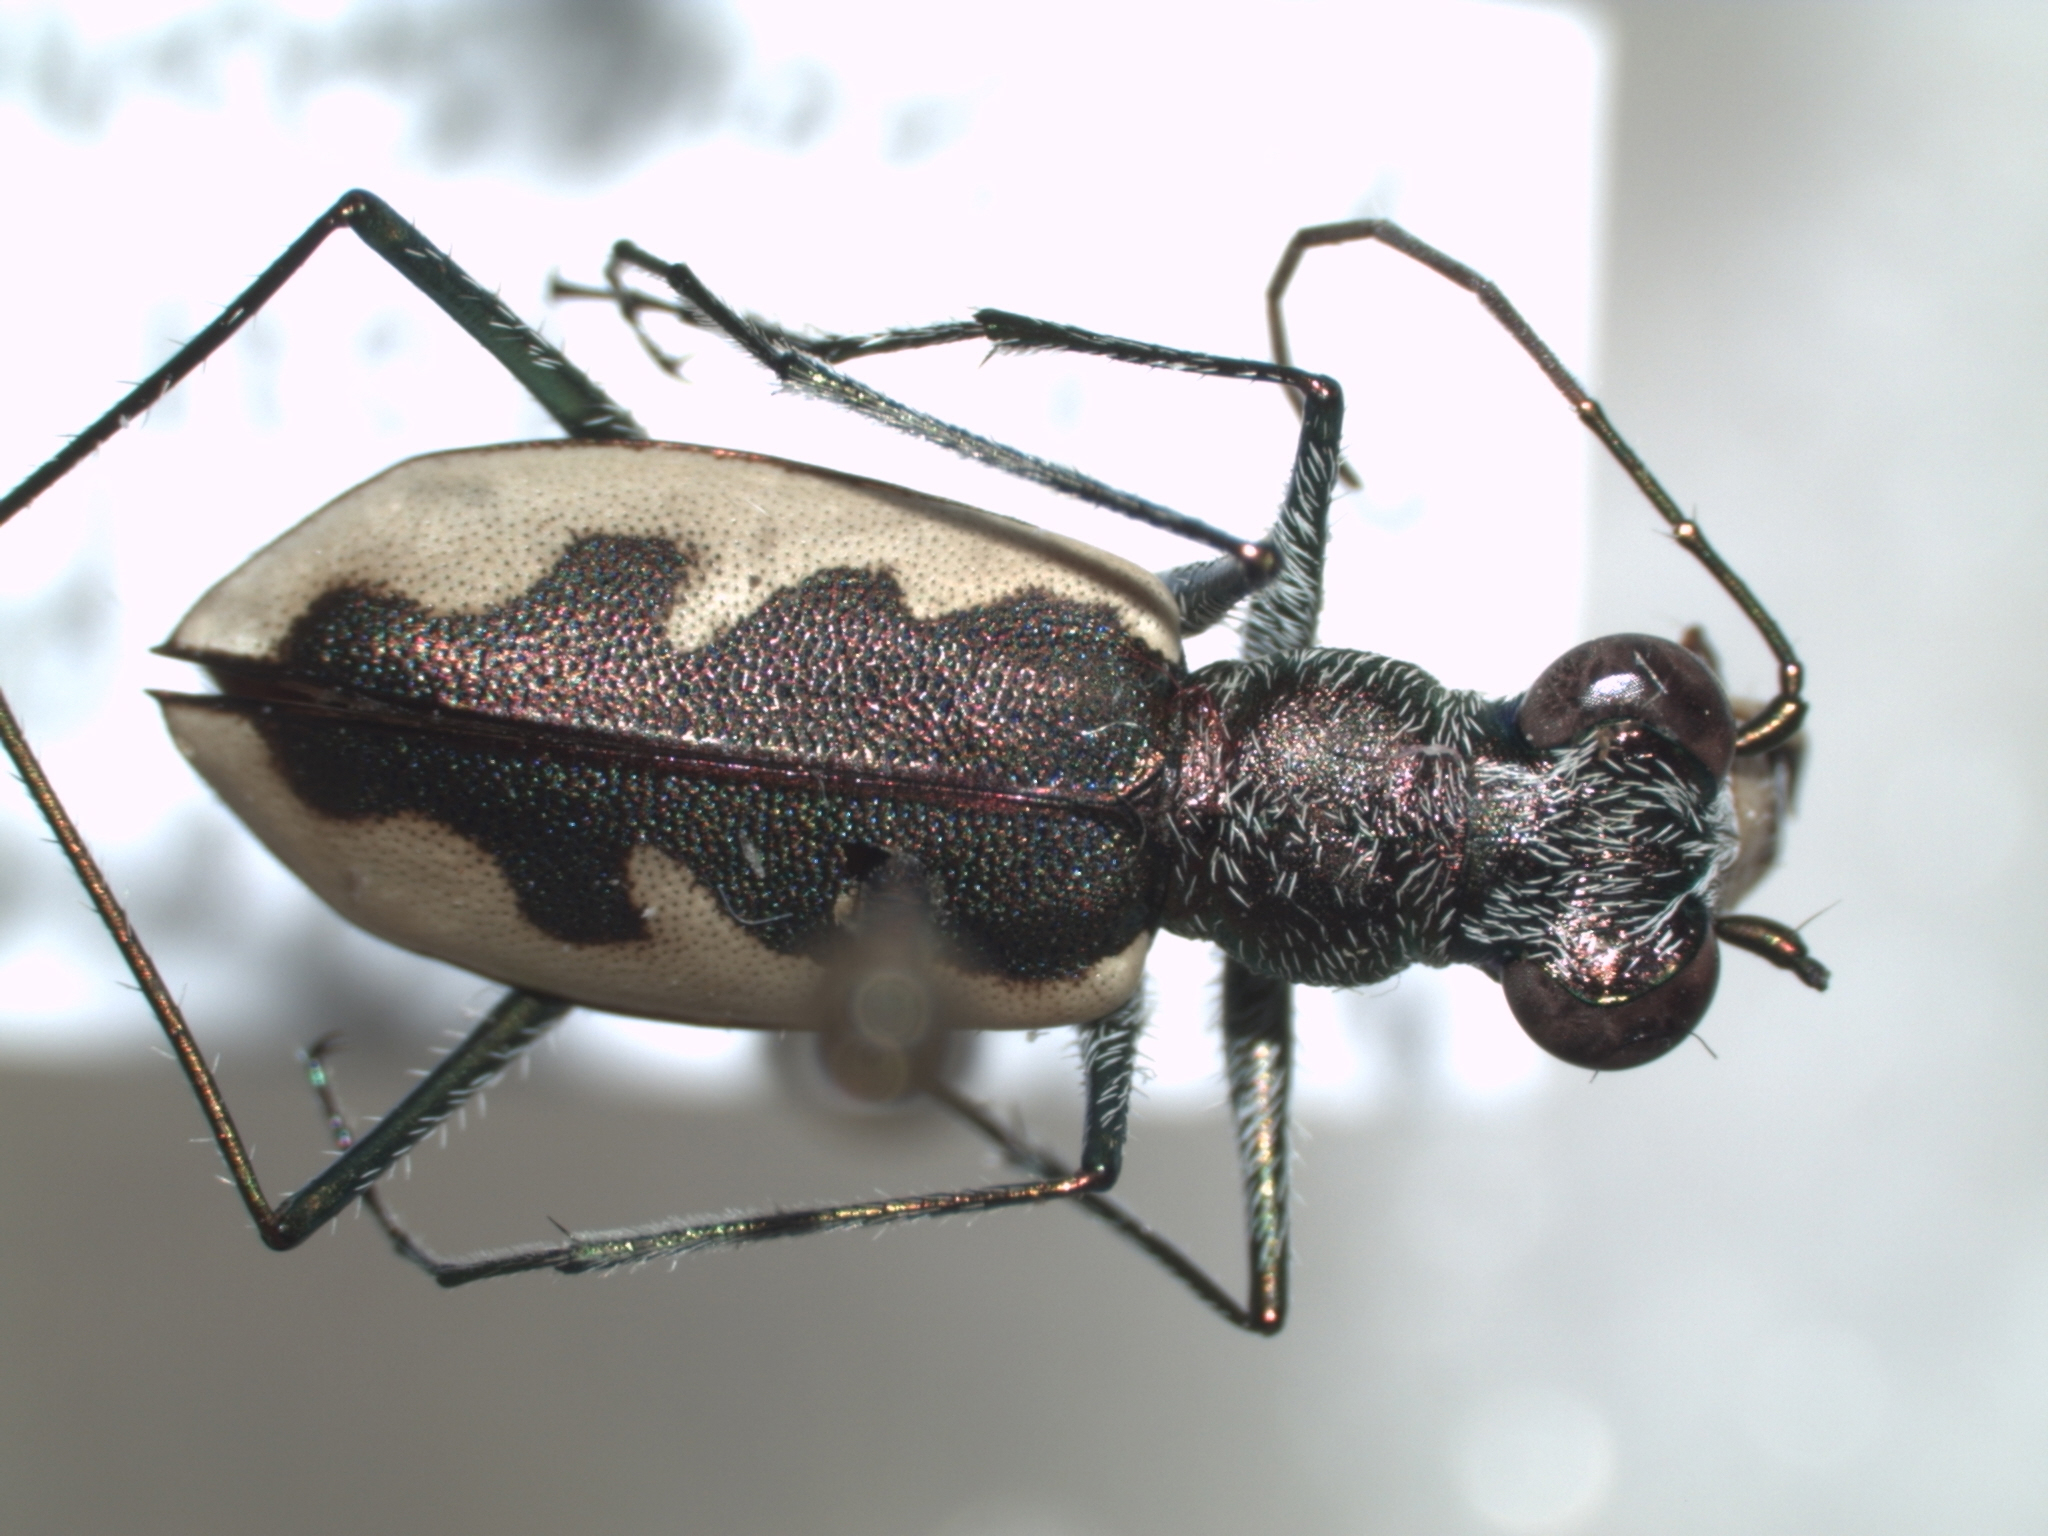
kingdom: Animalia
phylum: Arthropoda
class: Insecta
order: Coleoptera
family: Carabidae
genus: Eunota
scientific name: Eunota togata
